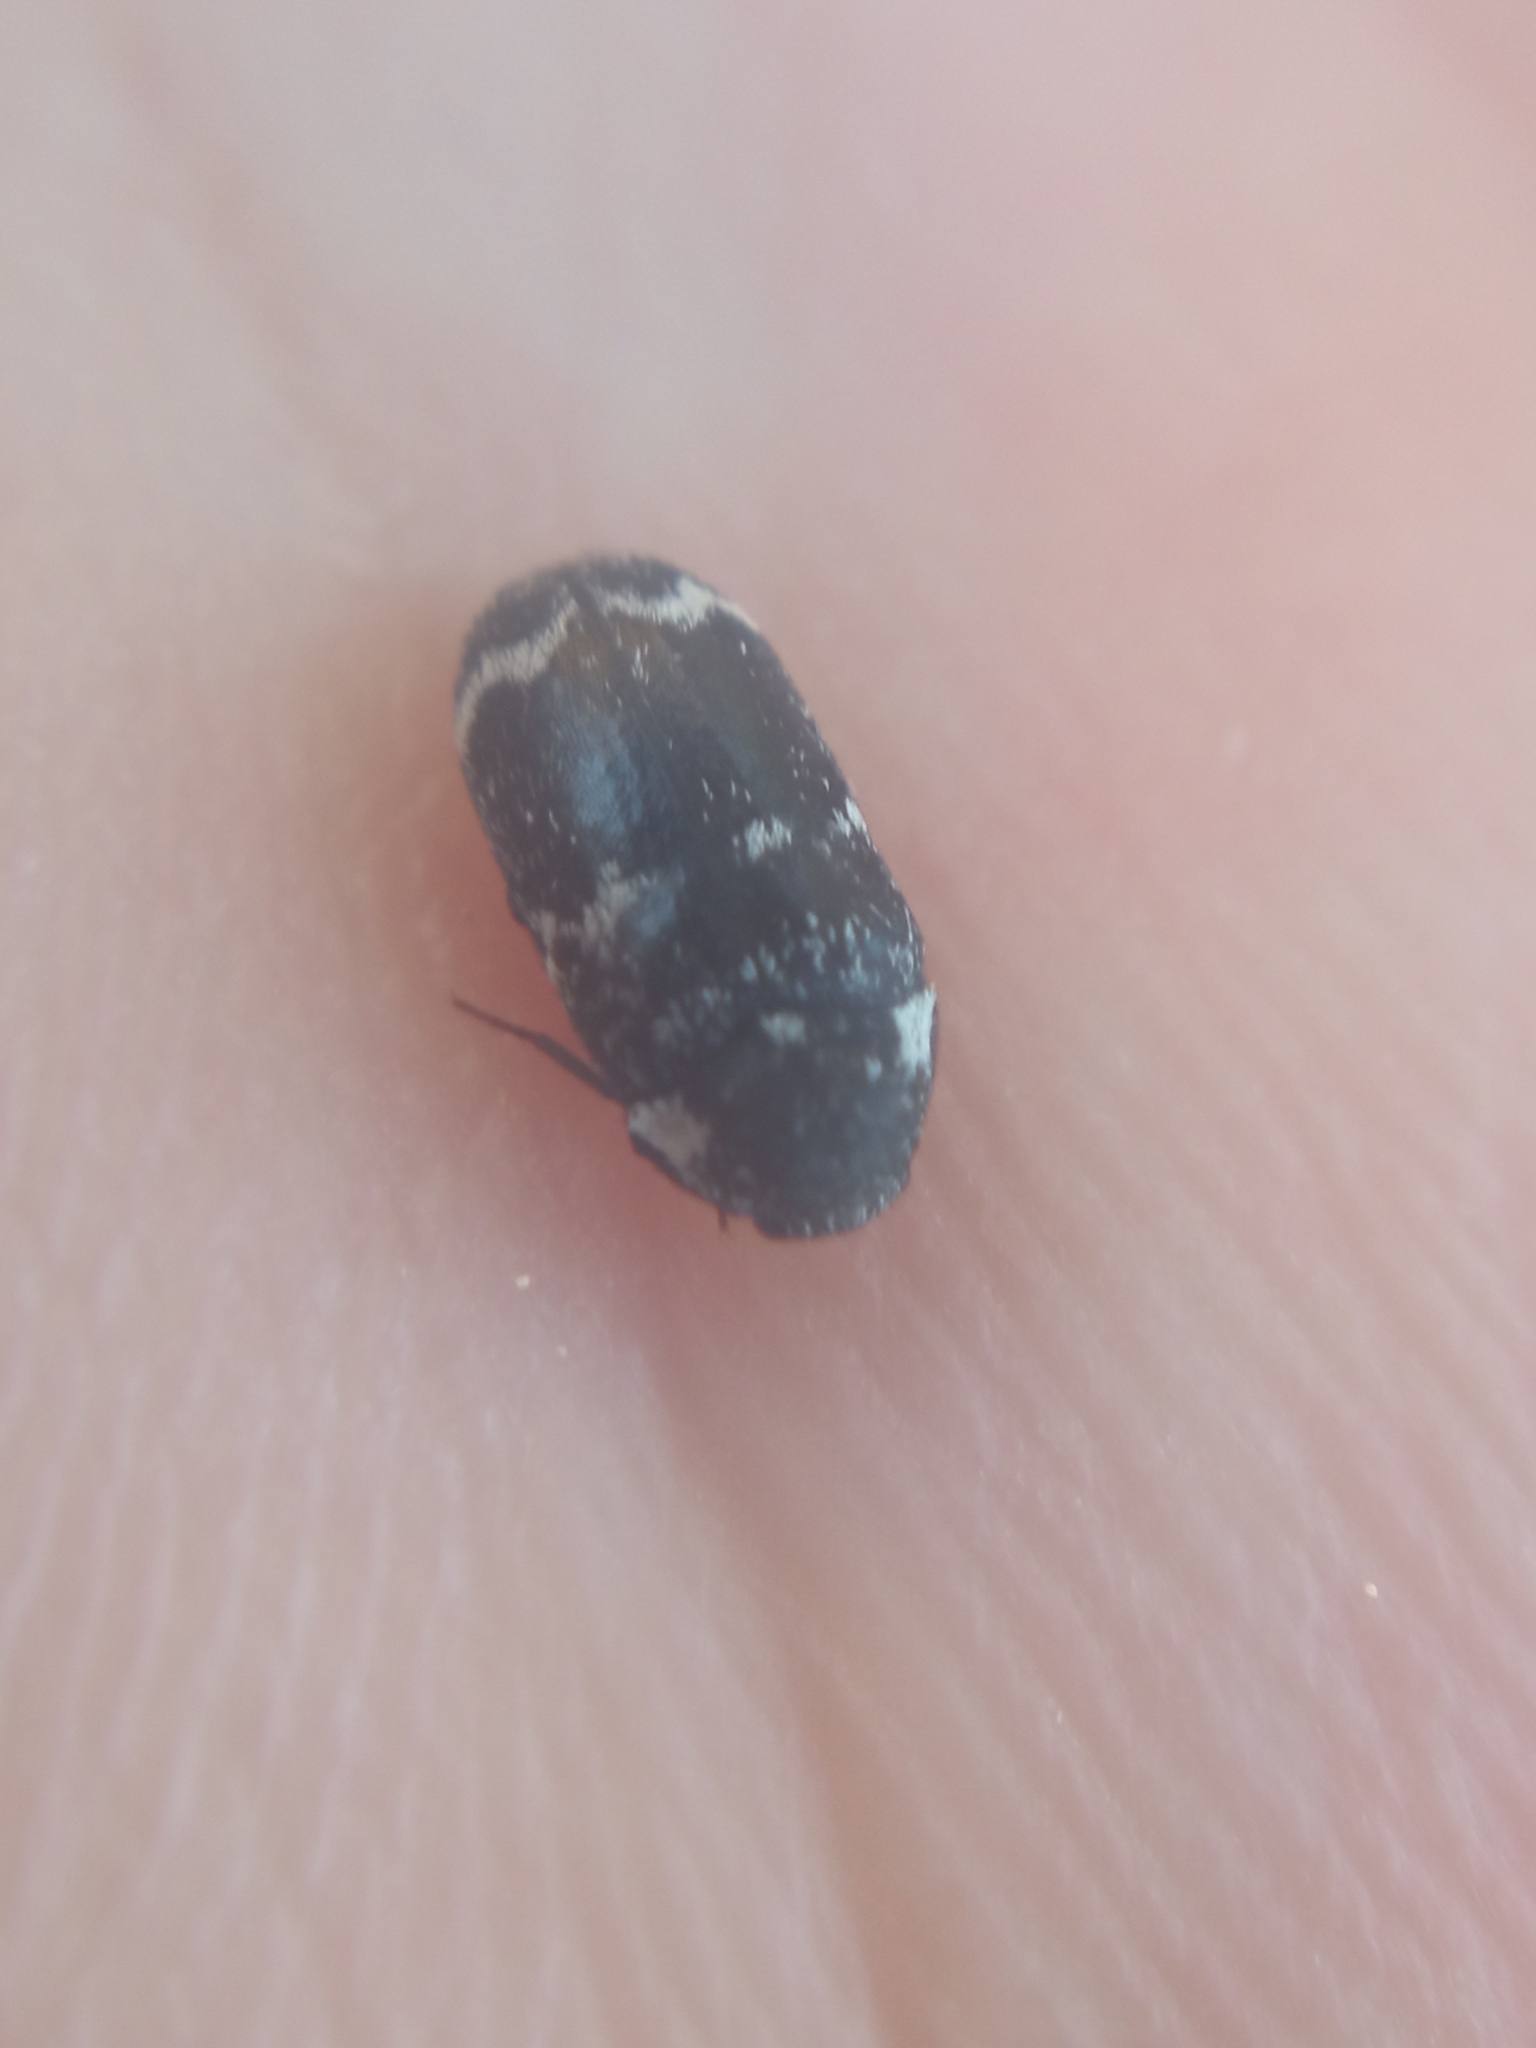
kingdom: Animalia
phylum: Arthropoda
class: Insecta
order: Coleoptera
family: Dermestidae
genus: Megatoma
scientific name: Megatoma undata
